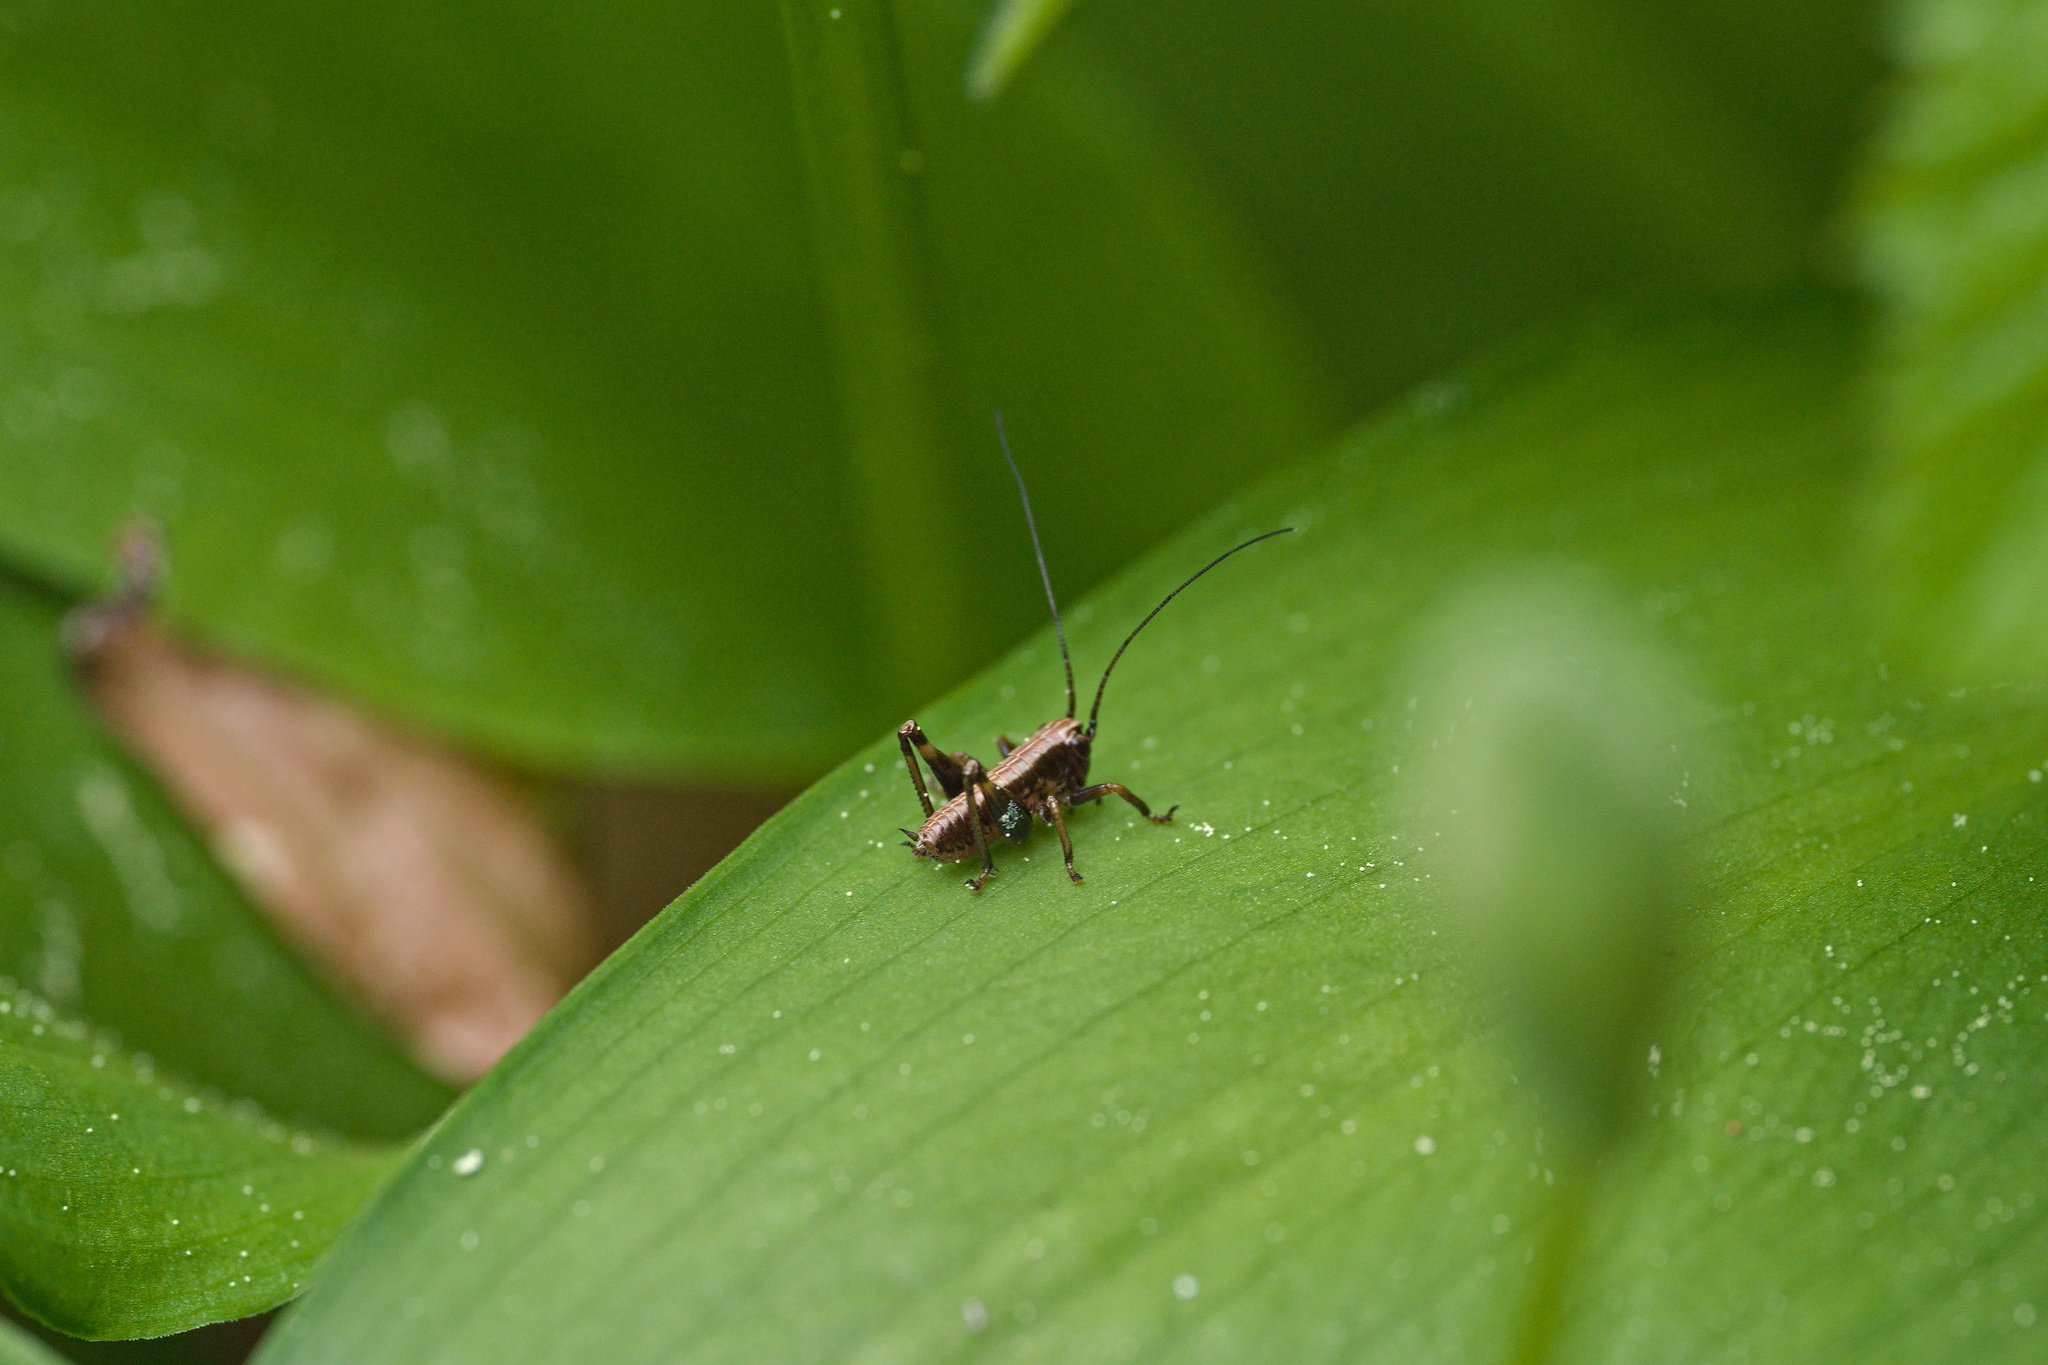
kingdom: Animalia
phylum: Arthropoda
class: Insecta
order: Orthoptera
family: Tettigoniidae
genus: Pholidoptera
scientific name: Pholidoptera griseoaptera
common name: Dark bush-cricket
